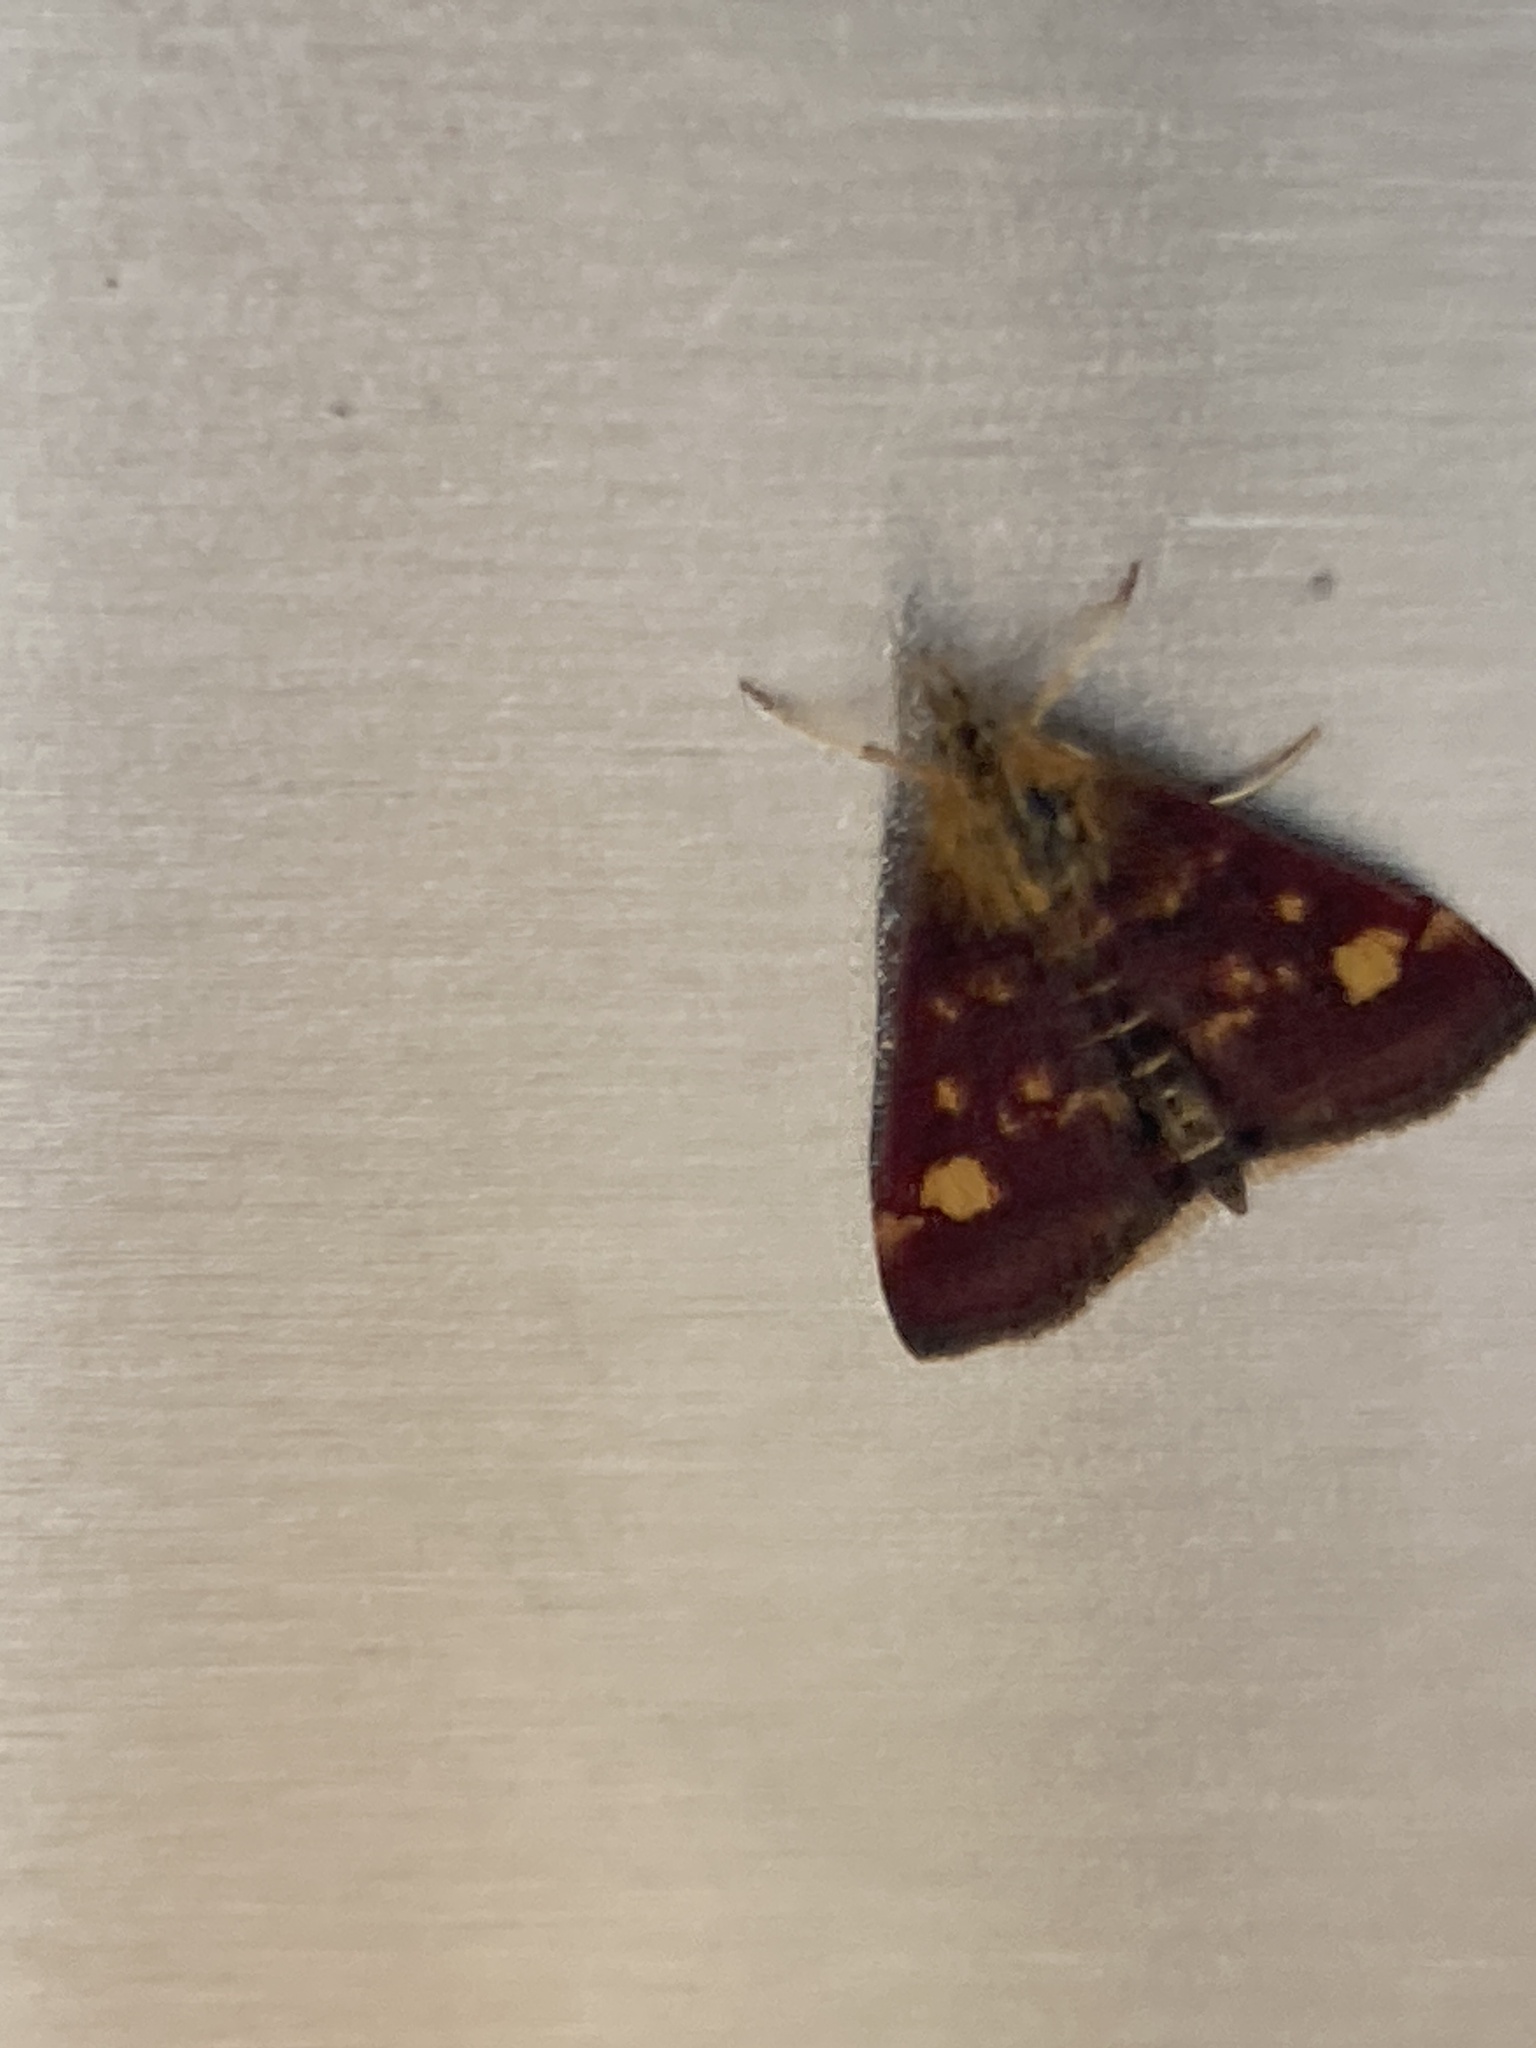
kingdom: Animalia
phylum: Arthropoda
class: Insecta
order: Lepidoptera
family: Crambidae
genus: Pyrausta
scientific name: Pyrausta aurata
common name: Small purple & gold
